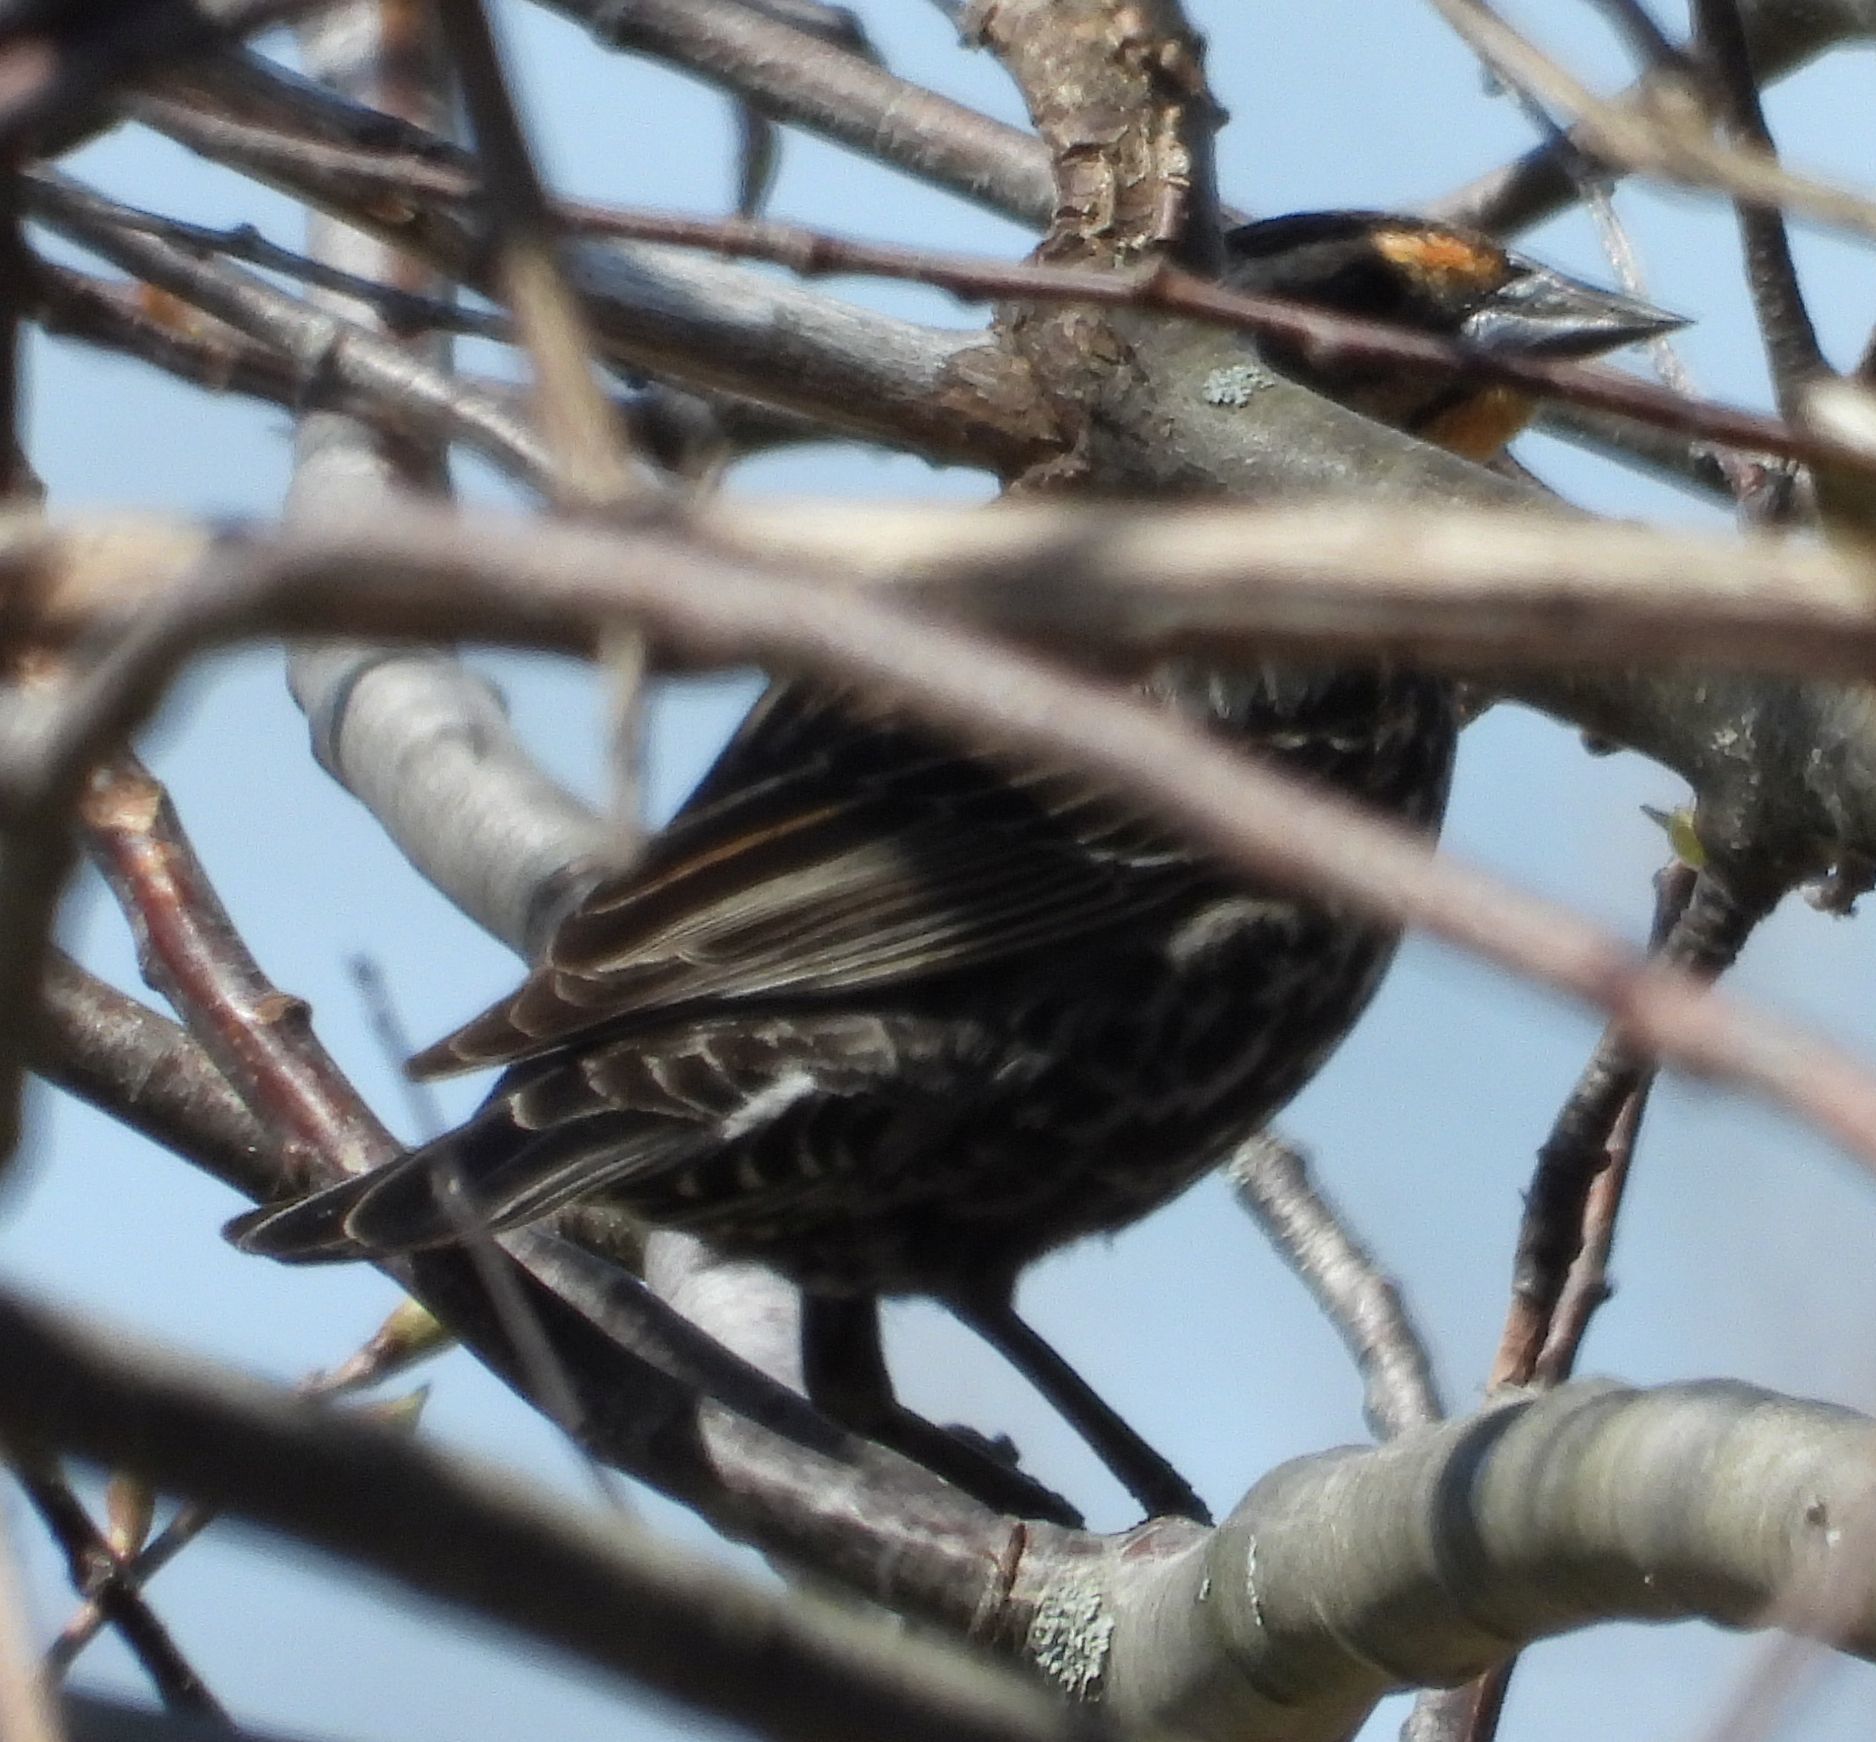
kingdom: Animalia
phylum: Chordata
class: Aves
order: Passeriformes
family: Icteridae
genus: Agelaius
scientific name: Agelaius phoeniceus
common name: Red-winged blackbird
